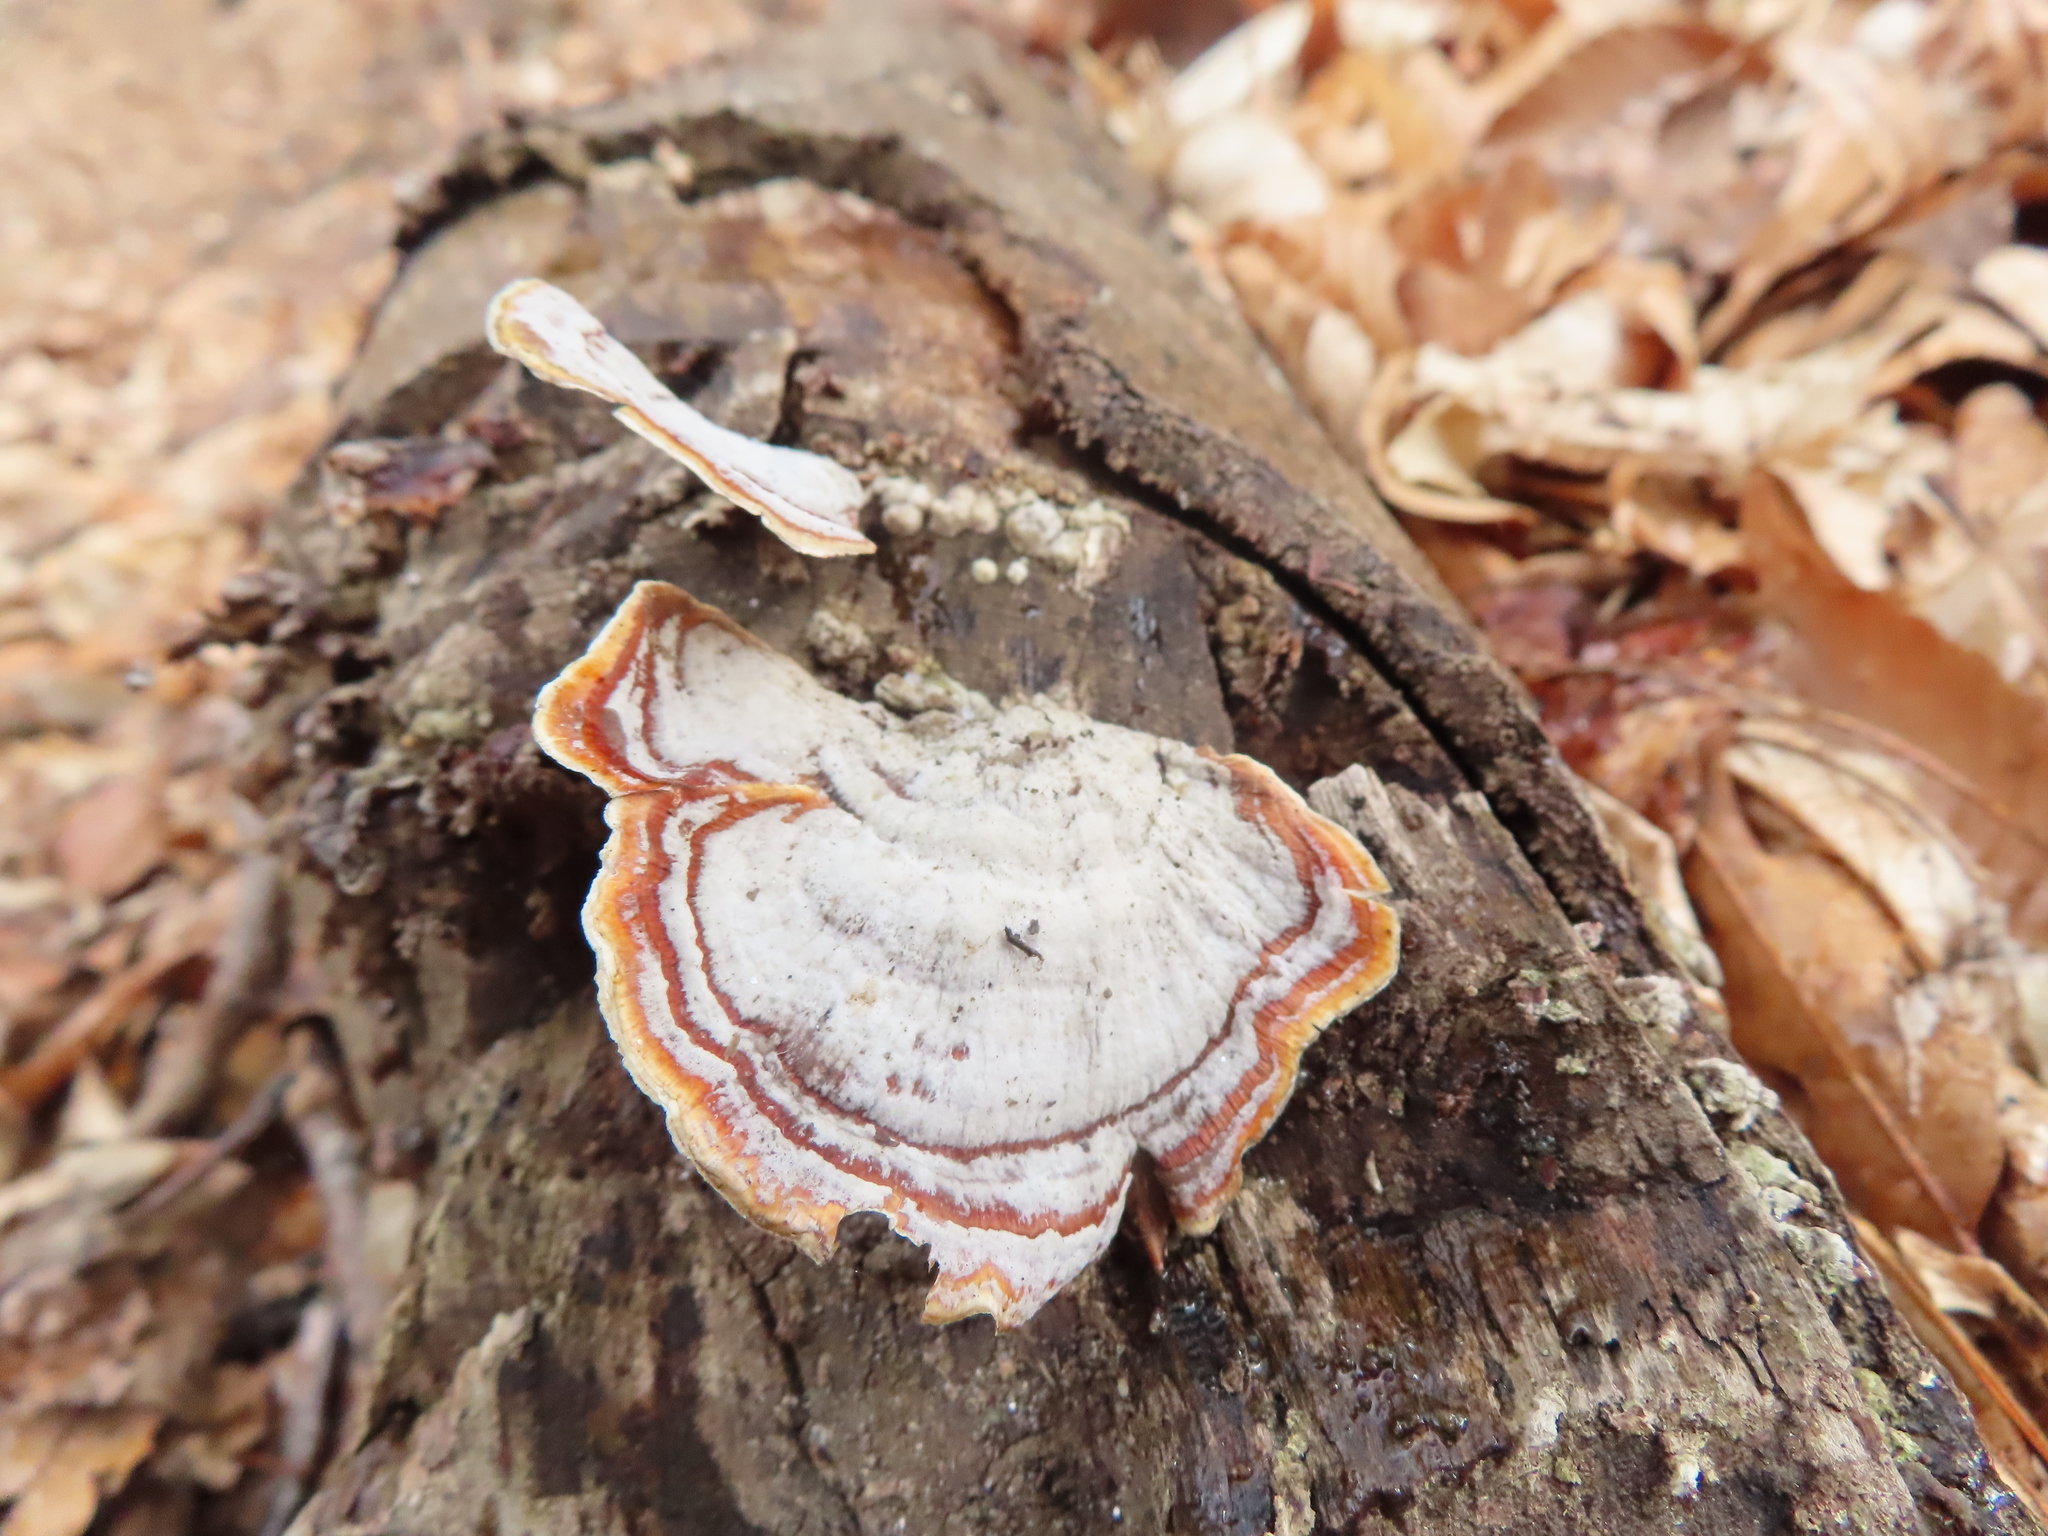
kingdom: Fungi
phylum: Basidiomycota
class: Agaricomycetes
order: Russulales
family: Stereaceae
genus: Stereum
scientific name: Stereum lobatum
